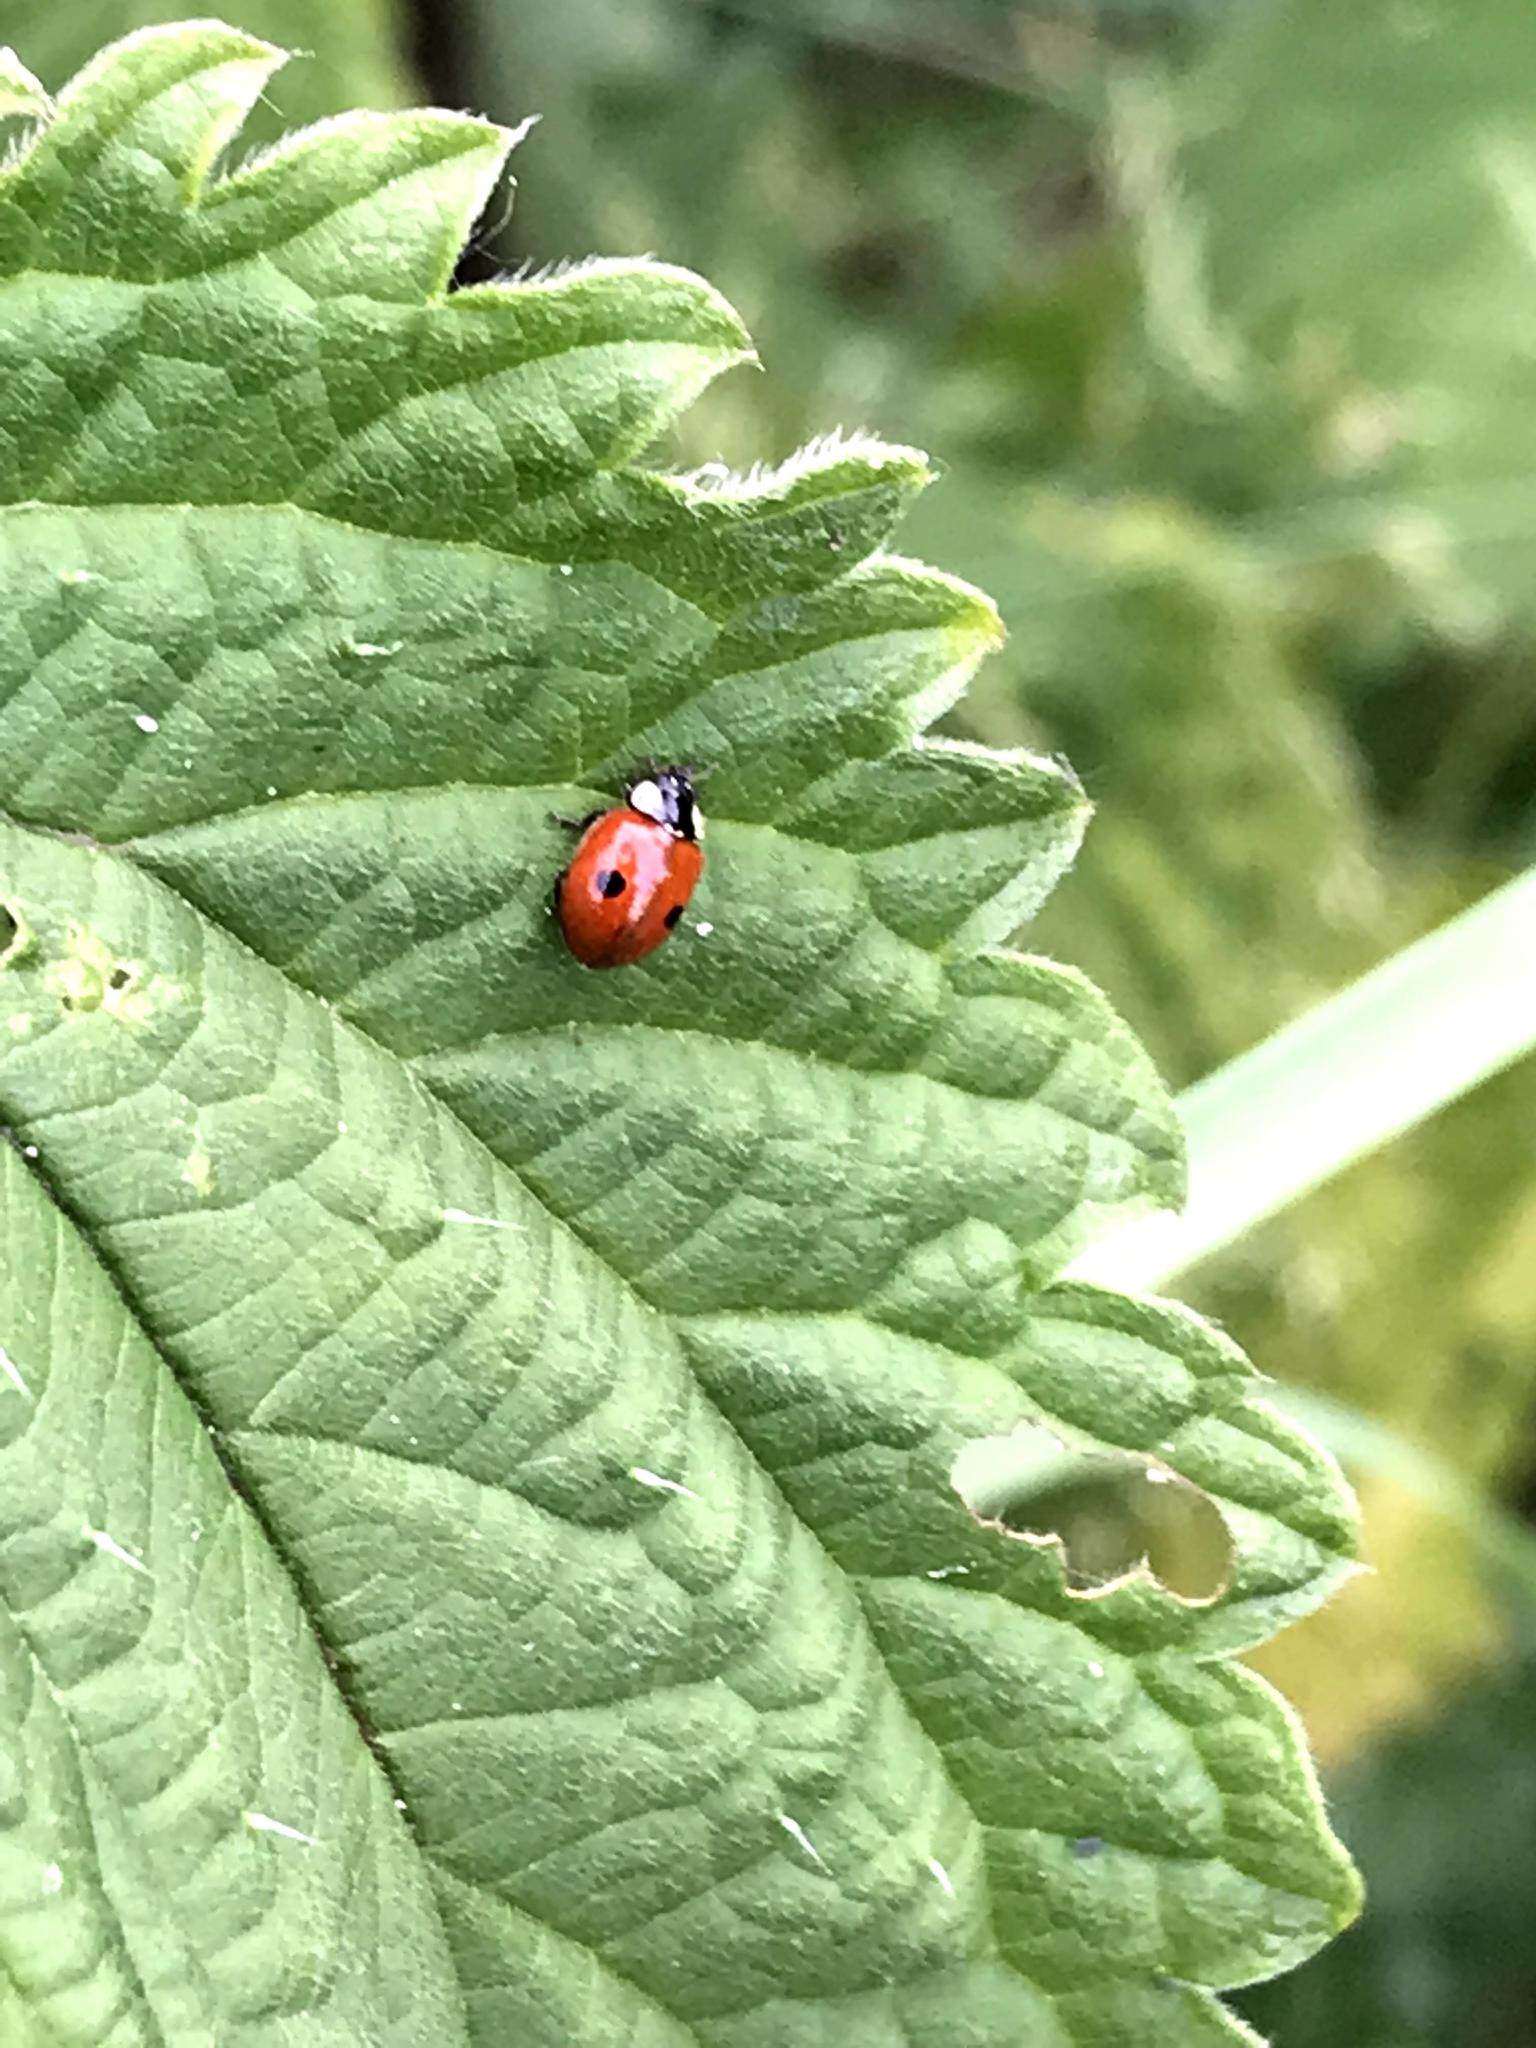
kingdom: Animalia
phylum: Arthropoda
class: Insecta
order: Coleoptera
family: Coccinellidae
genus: Adalia
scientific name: Adalia bipunctata
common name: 2-spot ladybird
